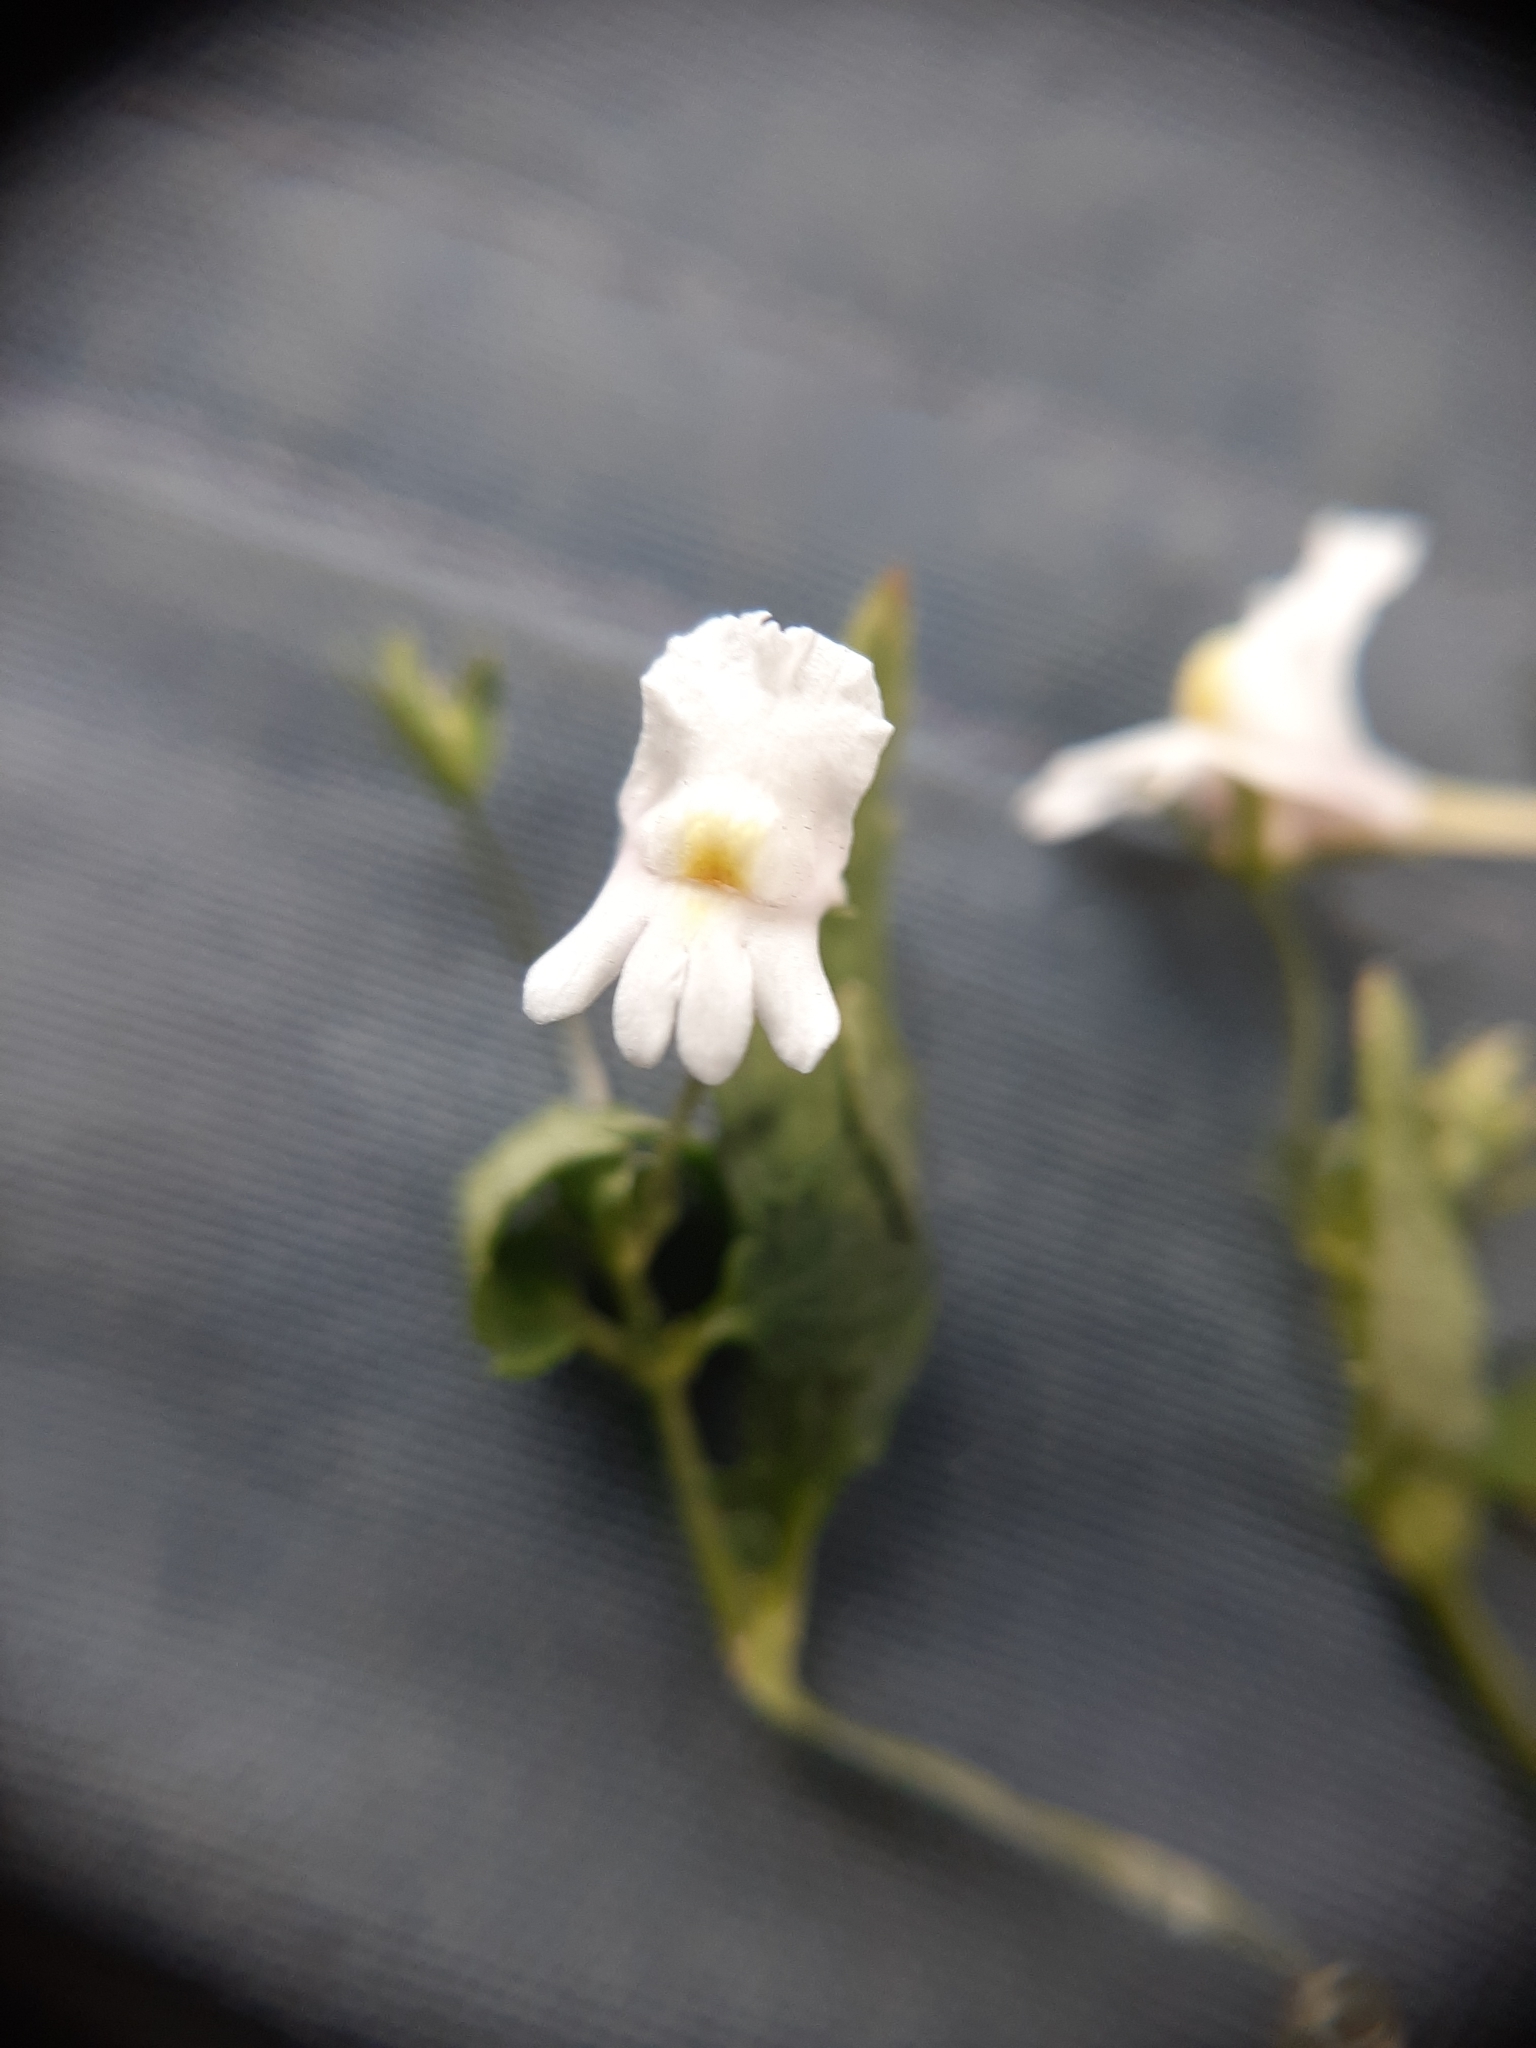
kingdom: Plantae
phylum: Tracheophyta
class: Magnoliopsida
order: Lamiales
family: Scrophulariaceae
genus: Nemesia
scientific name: Nemesia floribunda
